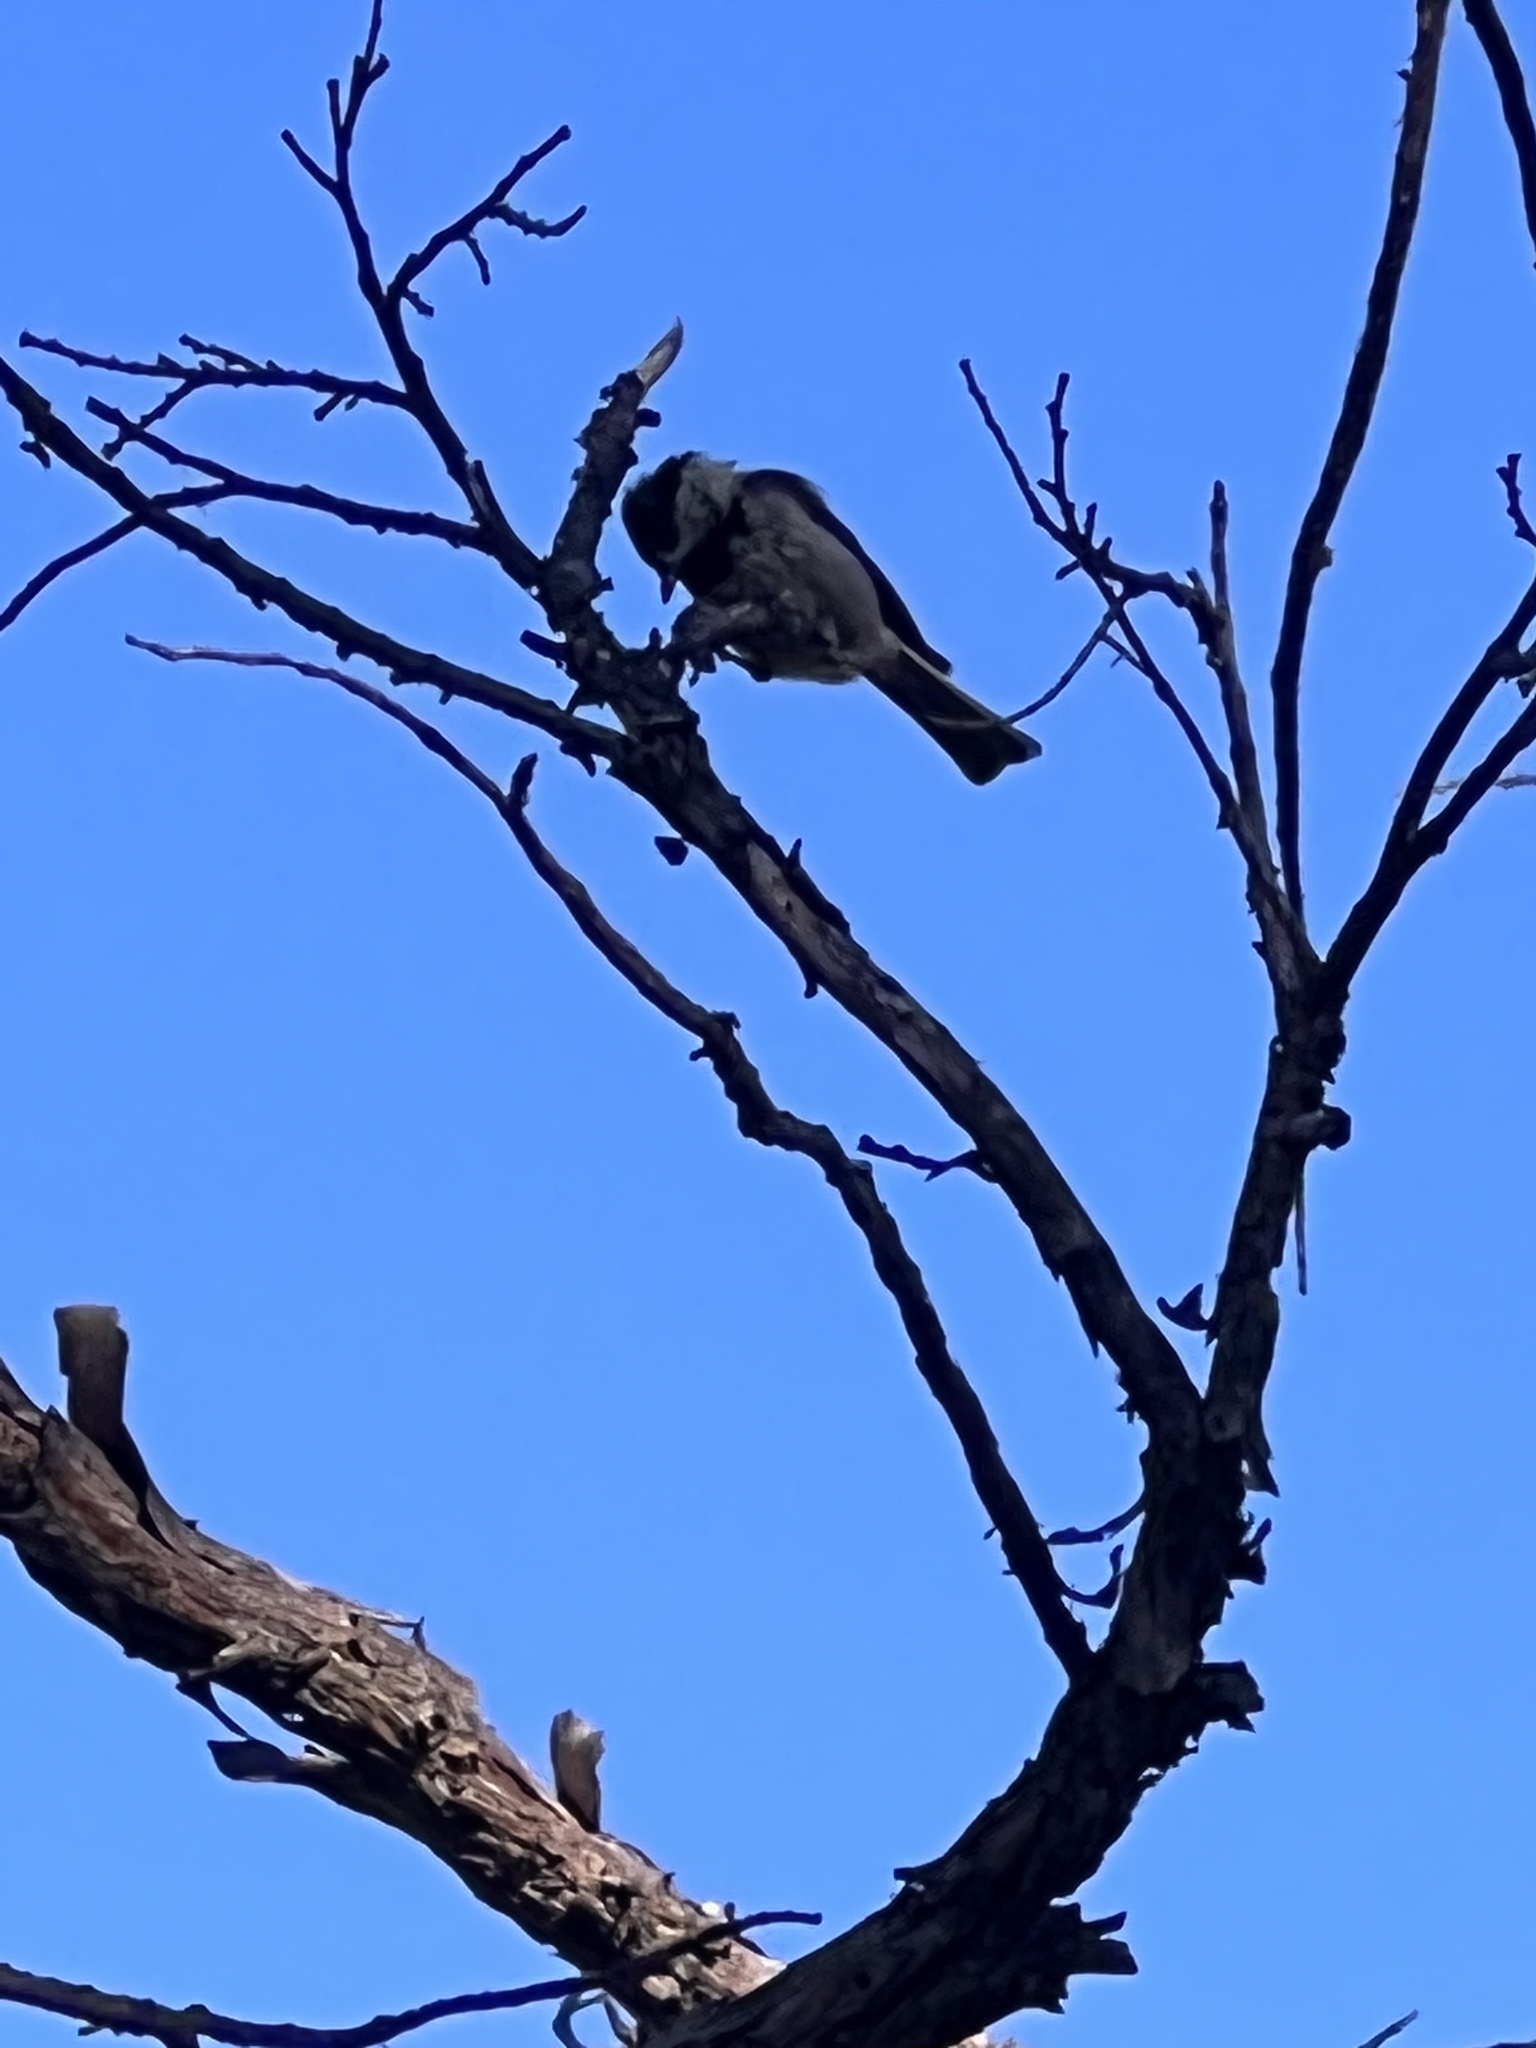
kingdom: Animalia
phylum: Chordata
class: Aves
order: Passeriformes
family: Paridae
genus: Poecile
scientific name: Poecile rufescens
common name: Chestnut-backed chickadee
